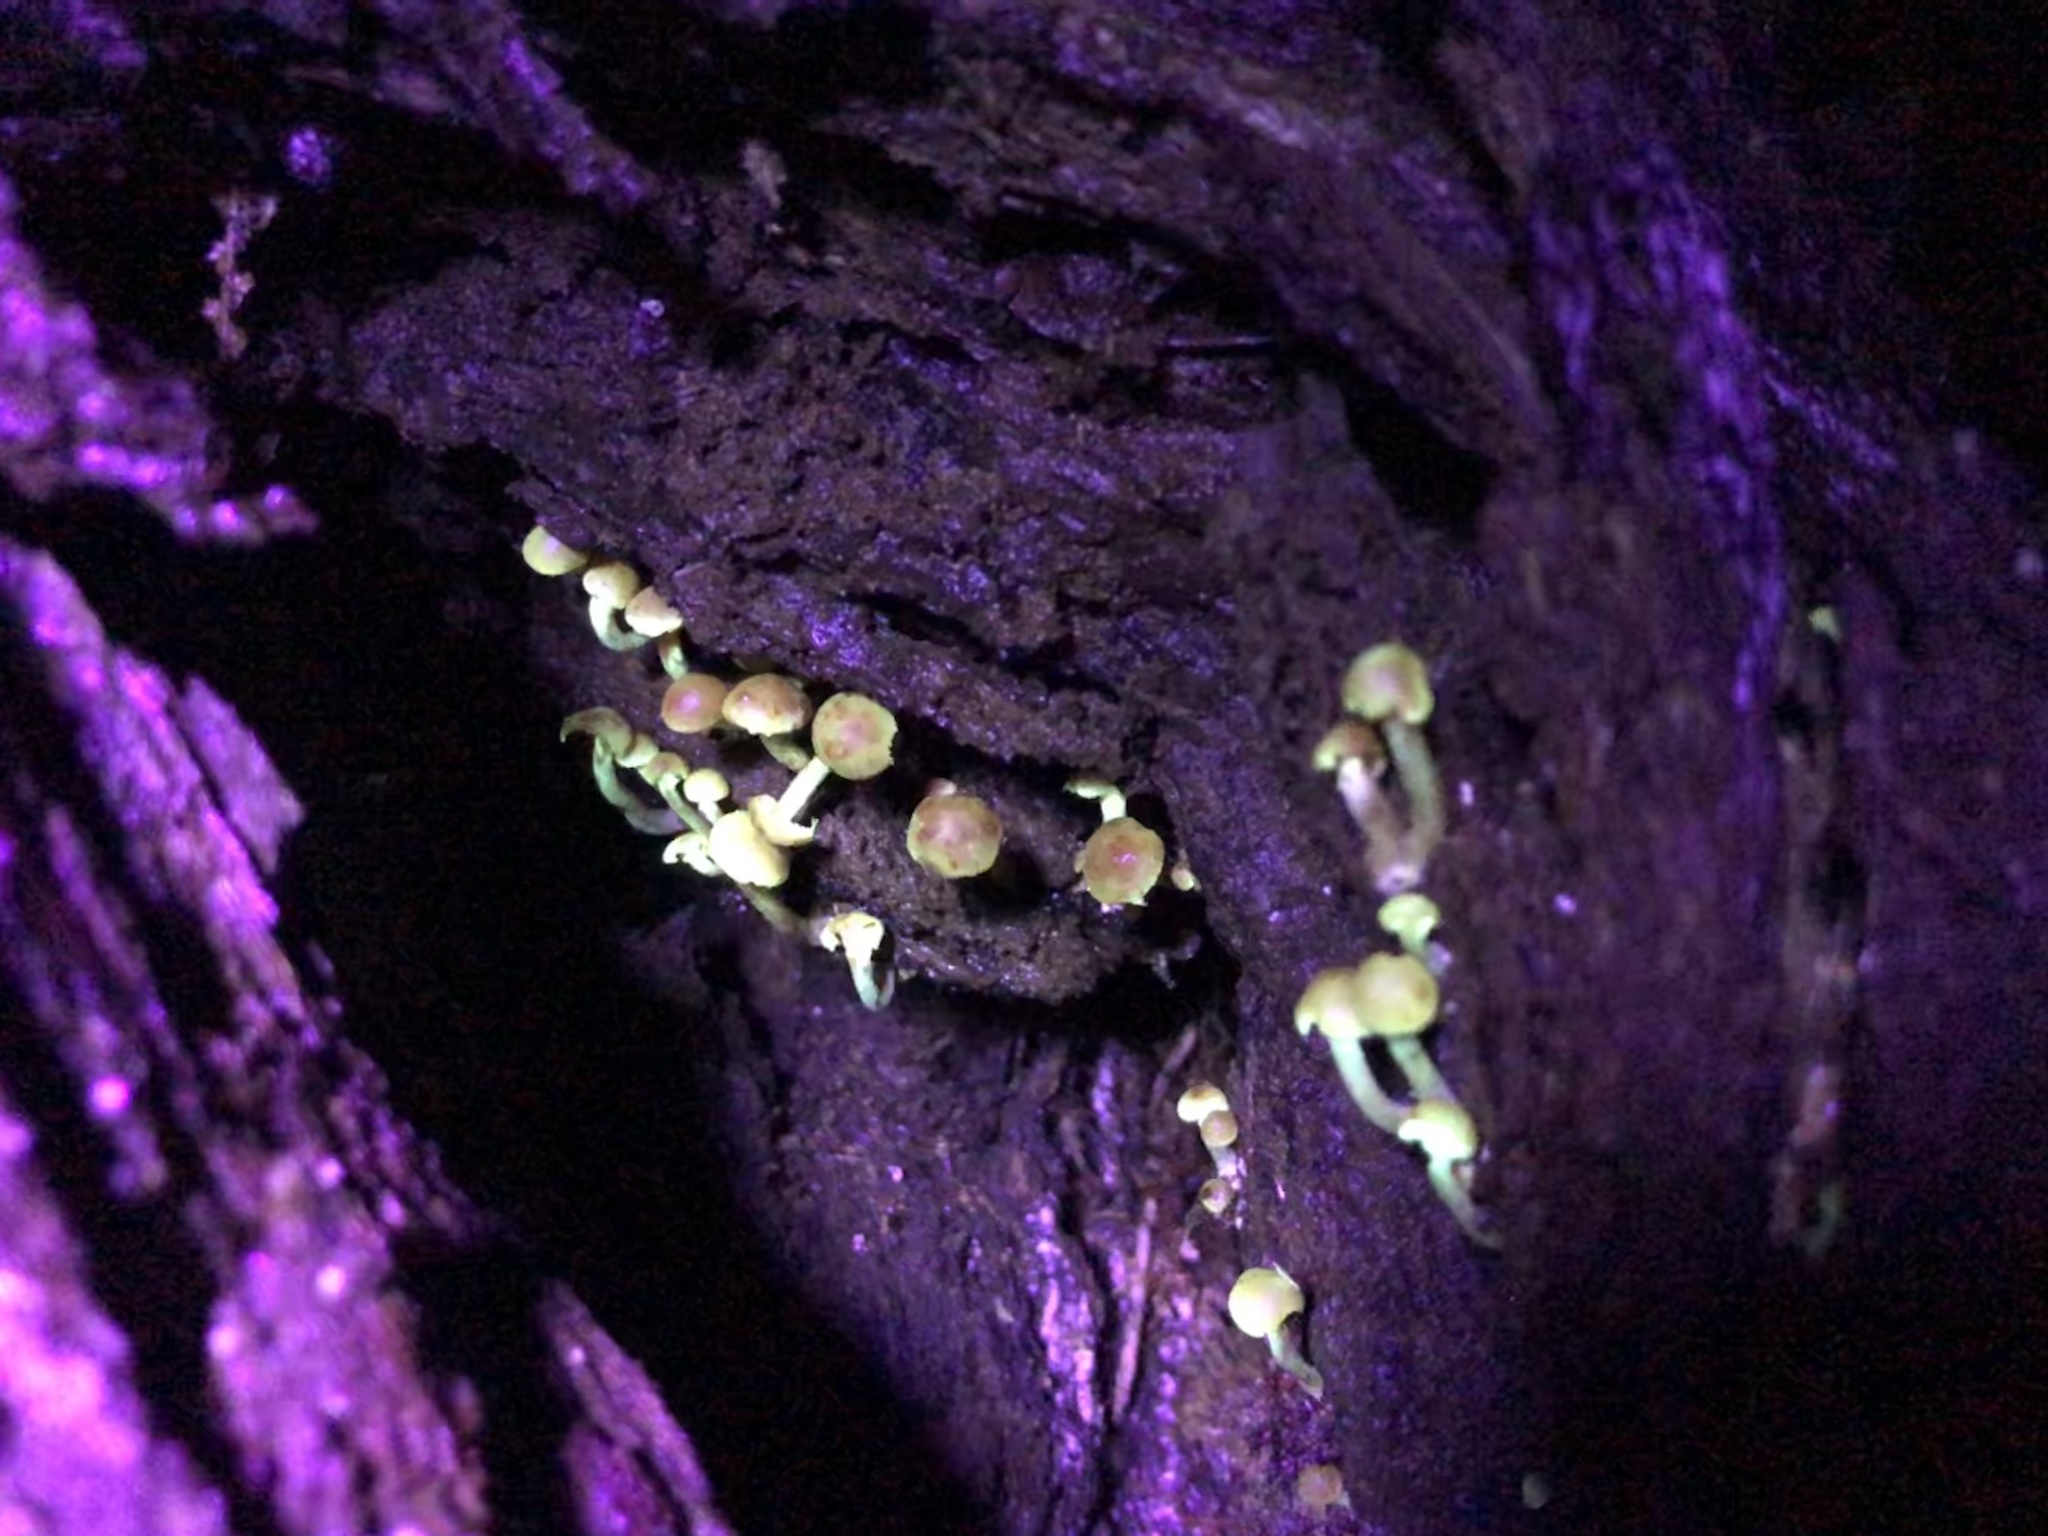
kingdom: Fungi
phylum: Basidiomycota
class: Agaricomycetes
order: Agaricales
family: Strophariaceae
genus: Hypholoma
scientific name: Hypholoma fasciculare
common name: Sulphur tuft
